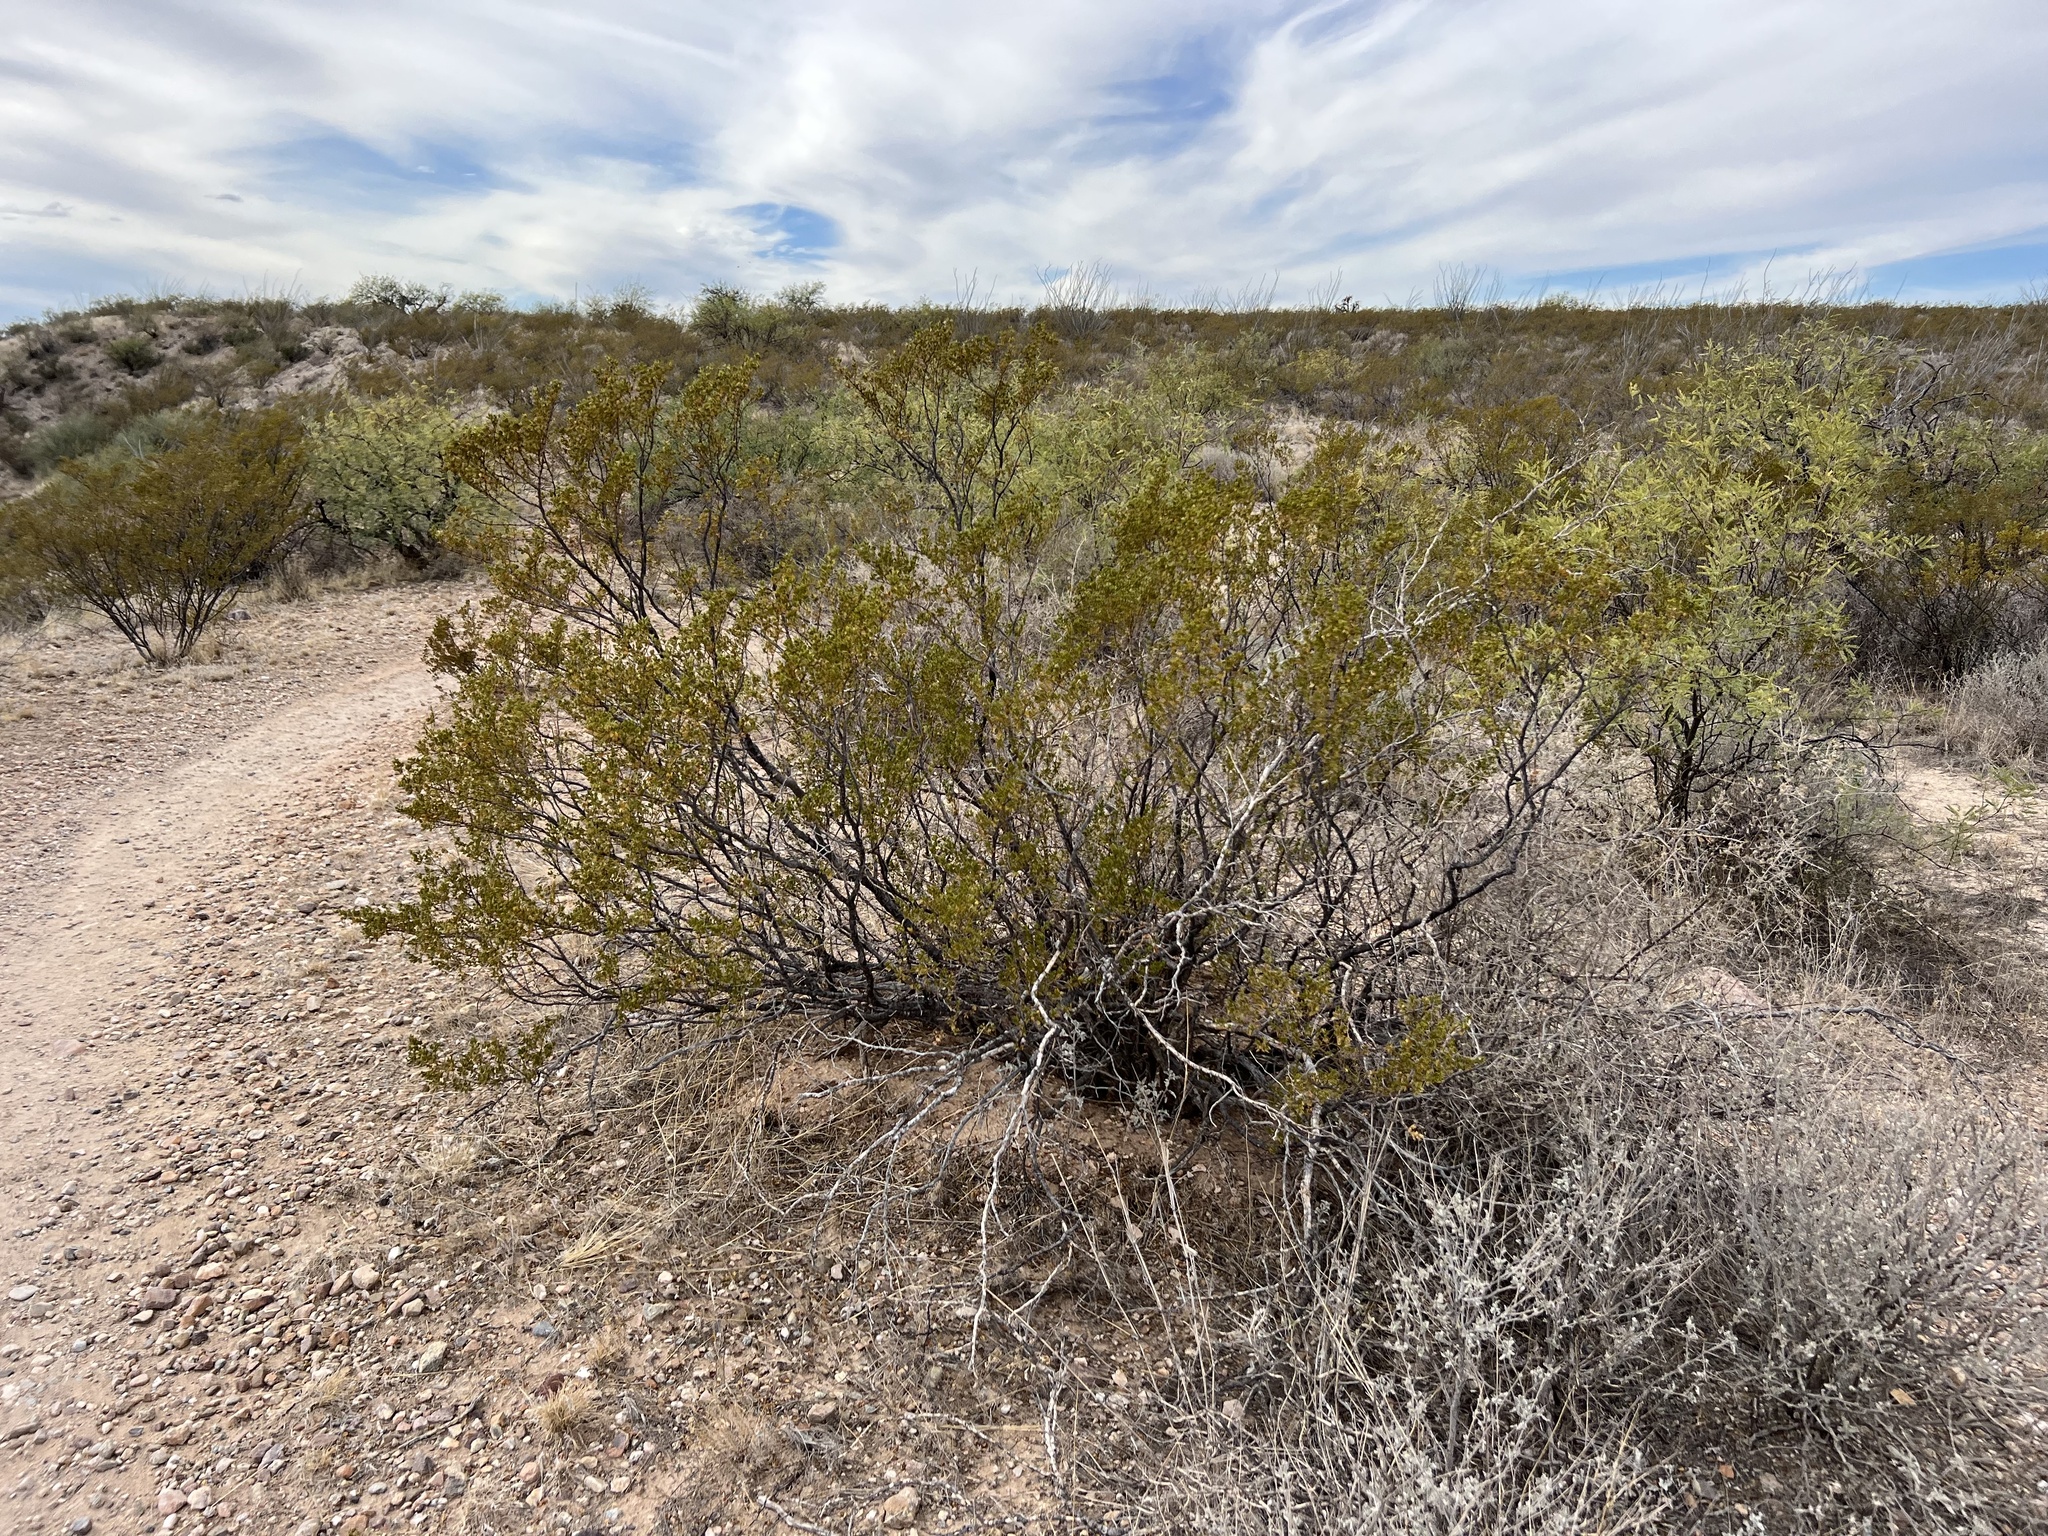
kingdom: Plantae
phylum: Tracheophyta
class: Magnoliopsida
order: Zygophyllales
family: Zygophyllaceae
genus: Larrea
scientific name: Larrea tridentata
